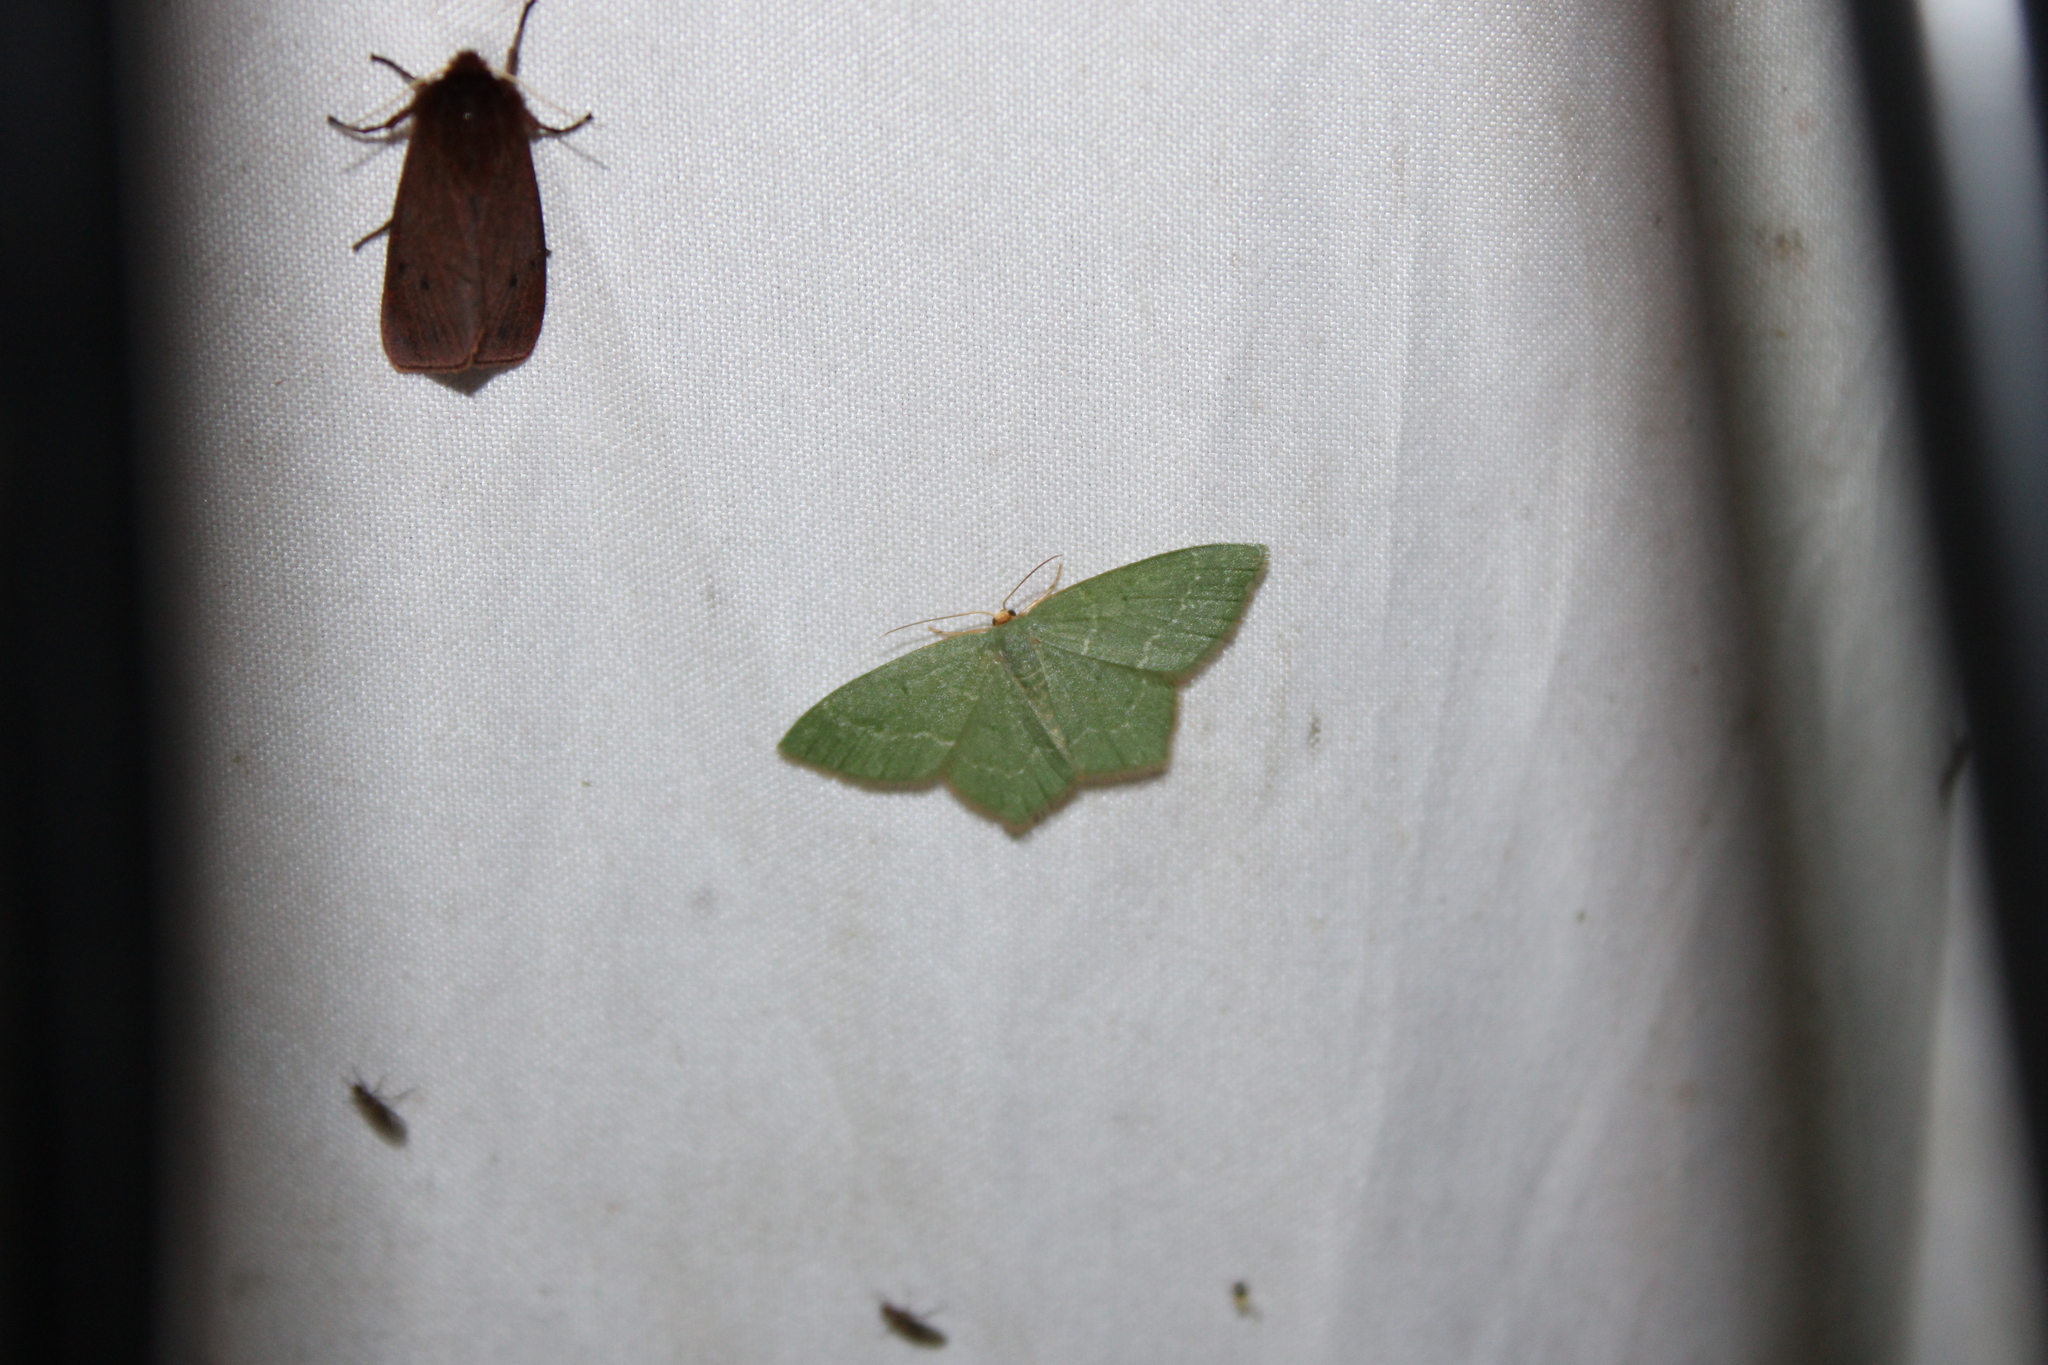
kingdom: Animalia
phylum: Arthropoda
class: Insecta
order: Lepidoptera
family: Geometridae
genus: Thalera
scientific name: Thalera pistasciaria
